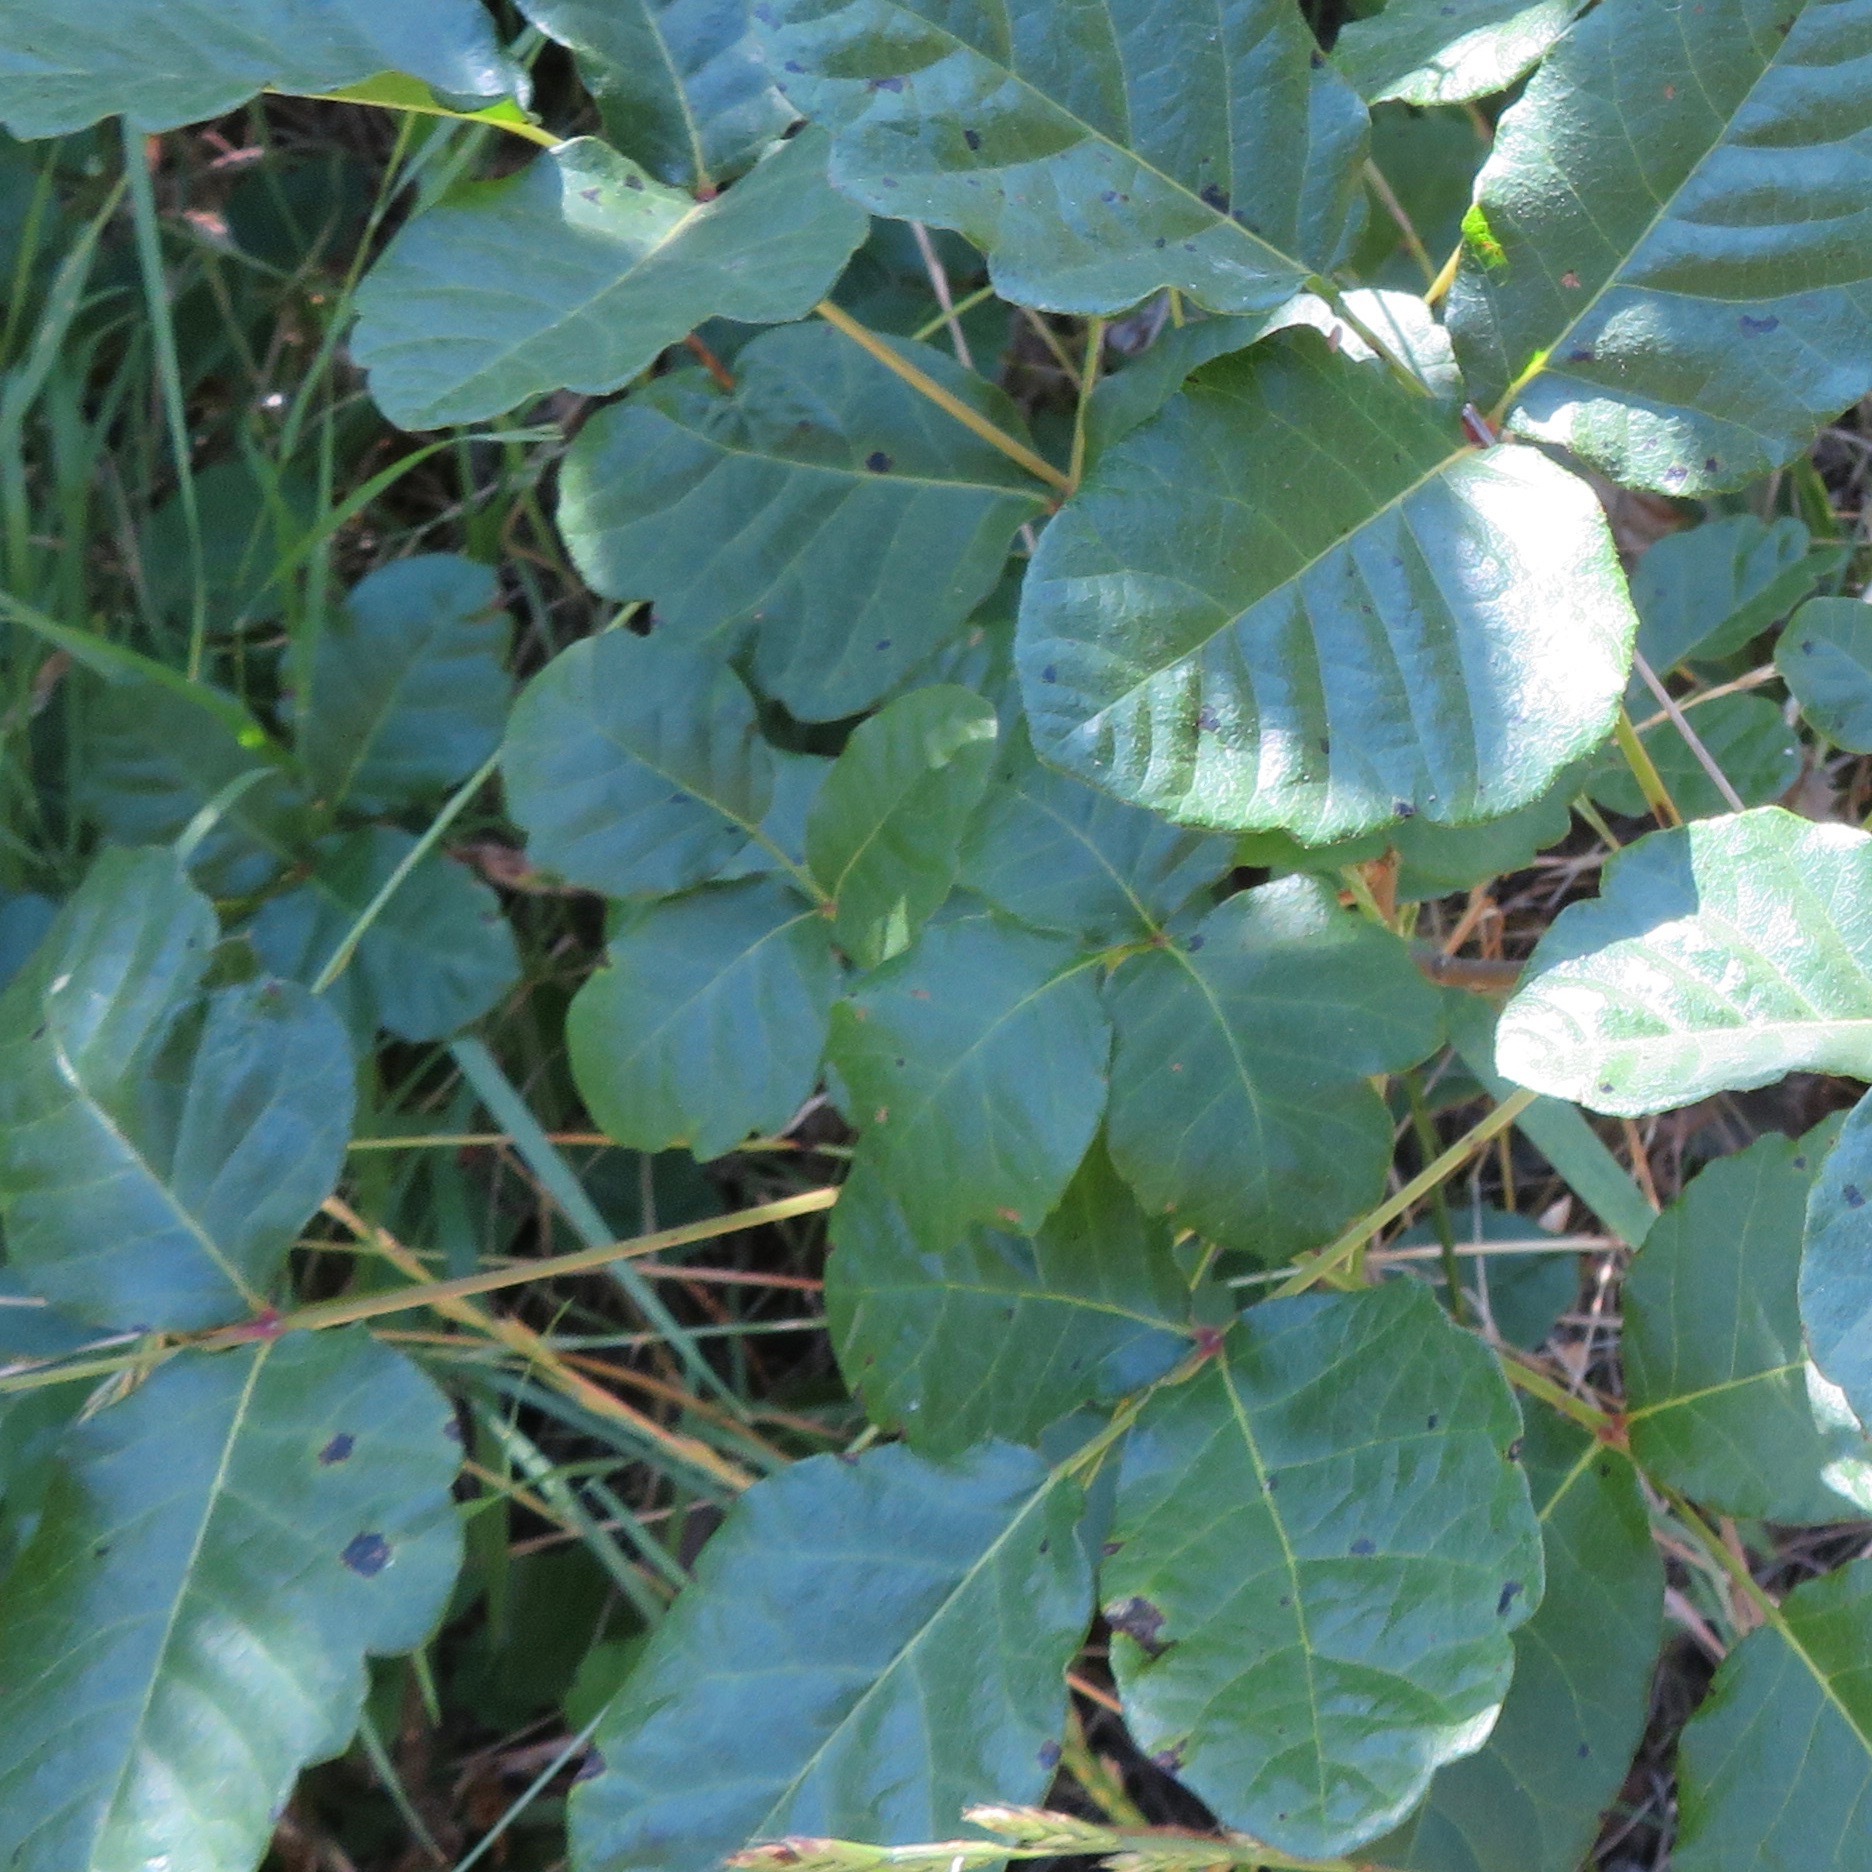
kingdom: Plantae
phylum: Tracheophyta
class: Magnoliopsida
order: Sapindales
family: Anacardiaceae
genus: Toxicodendron
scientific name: Toxicodendron diversilobum
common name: Pacific poison-oak
